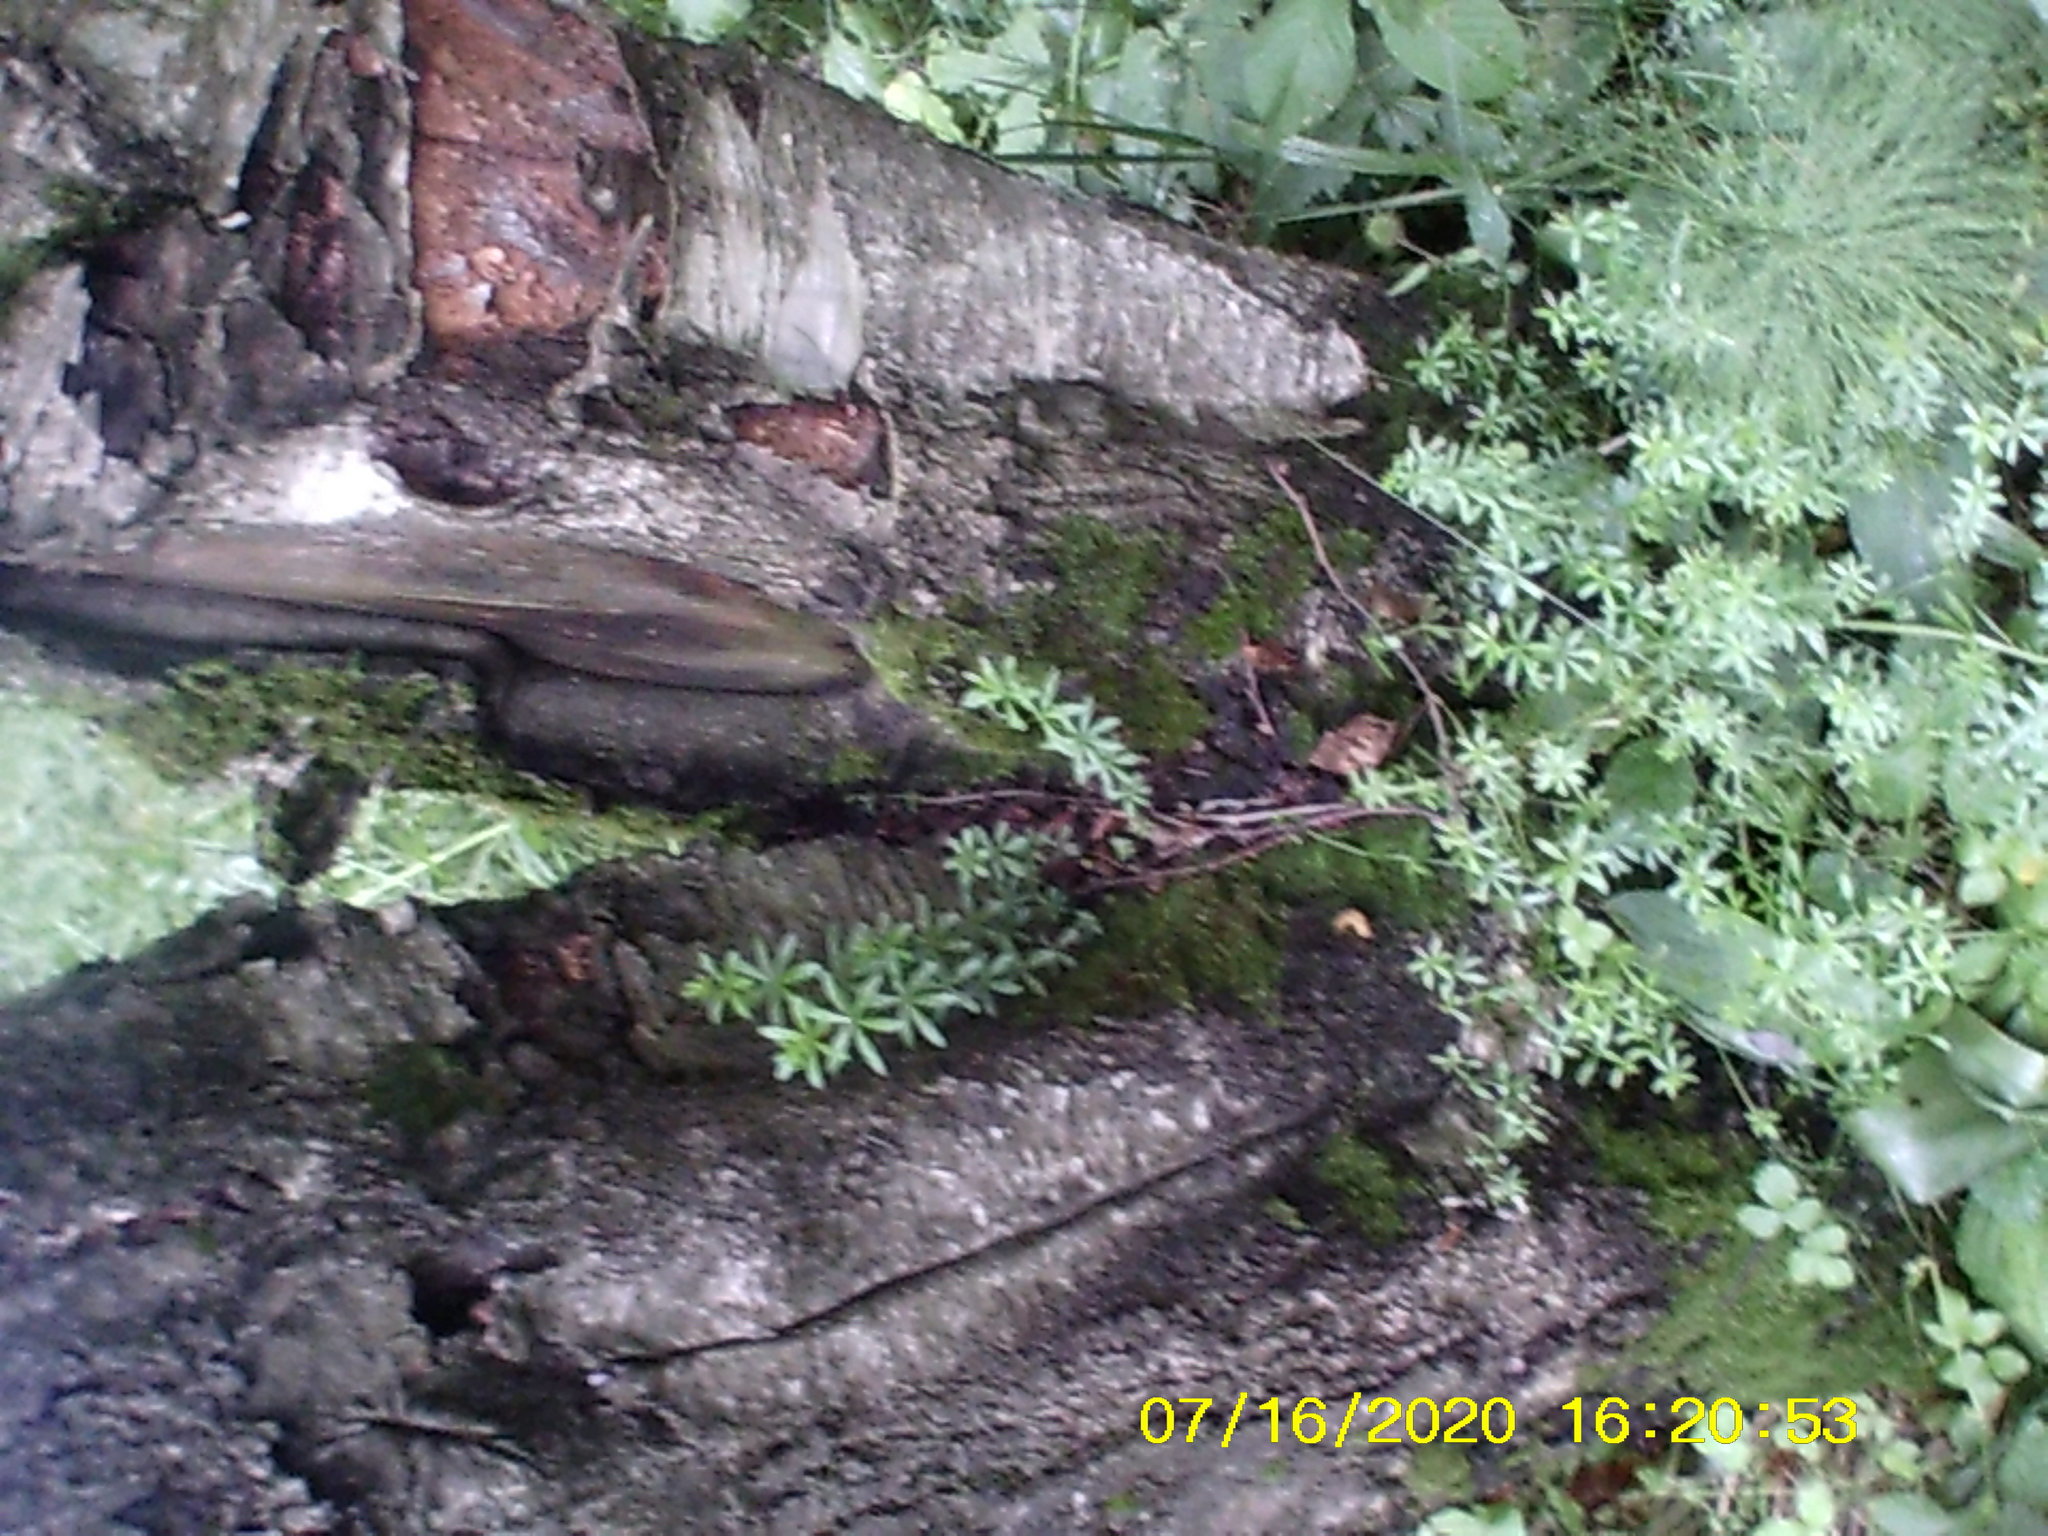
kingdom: Plantae
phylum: Tracheophyta
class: Magnoliopsida
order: Gentianales
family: Rubiaceae
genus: Galium
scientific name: Galium mollugo
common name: Hedge bedstraw
